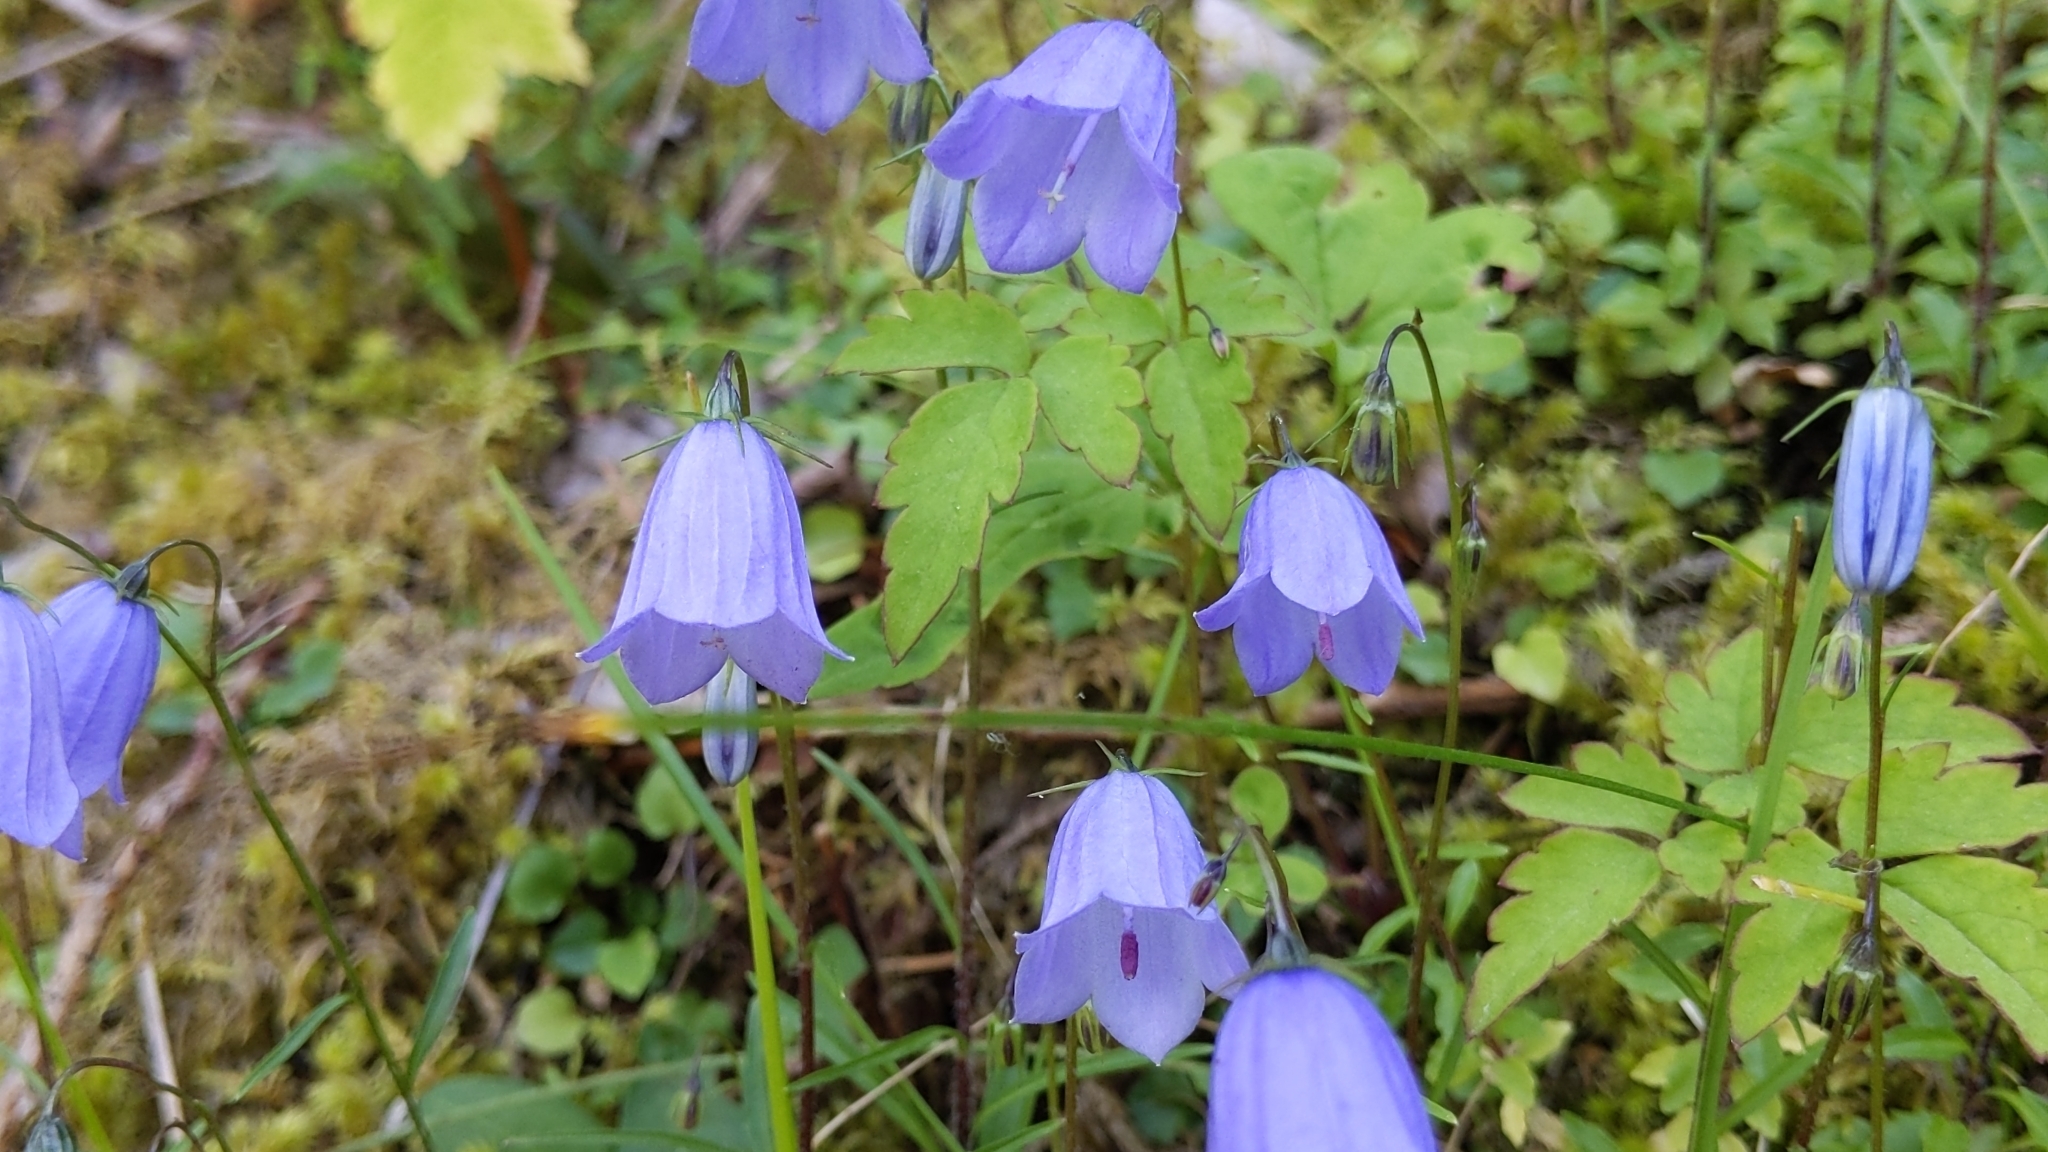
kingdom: Plantae
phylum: Tracheophyta
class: Magnoliopsida
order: Asterales
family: Campanulaceae
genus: Campanula
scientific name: Campanula cochleariifolia
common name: Fairies'-thimbles
